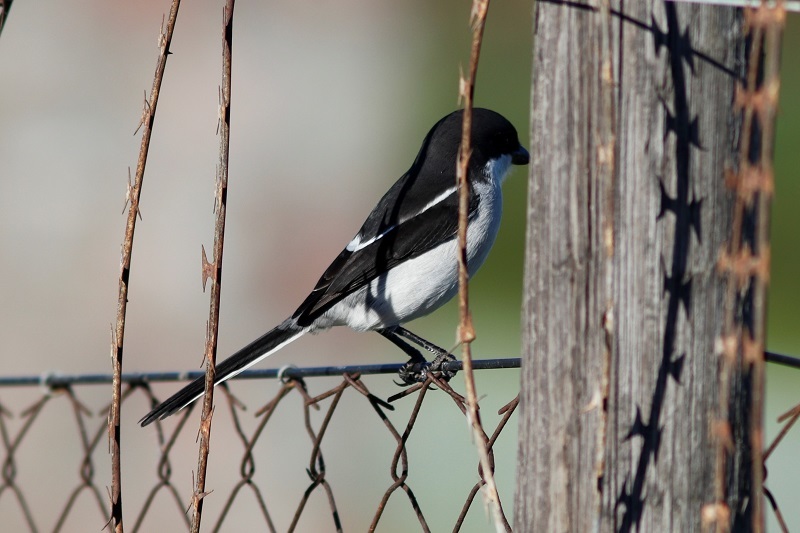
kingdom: Animalia
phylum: Chordata
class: Aves
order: Passeriformes
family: Laniidae
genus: Lanius
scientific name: Lanius collaris
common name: Southern fiscal
